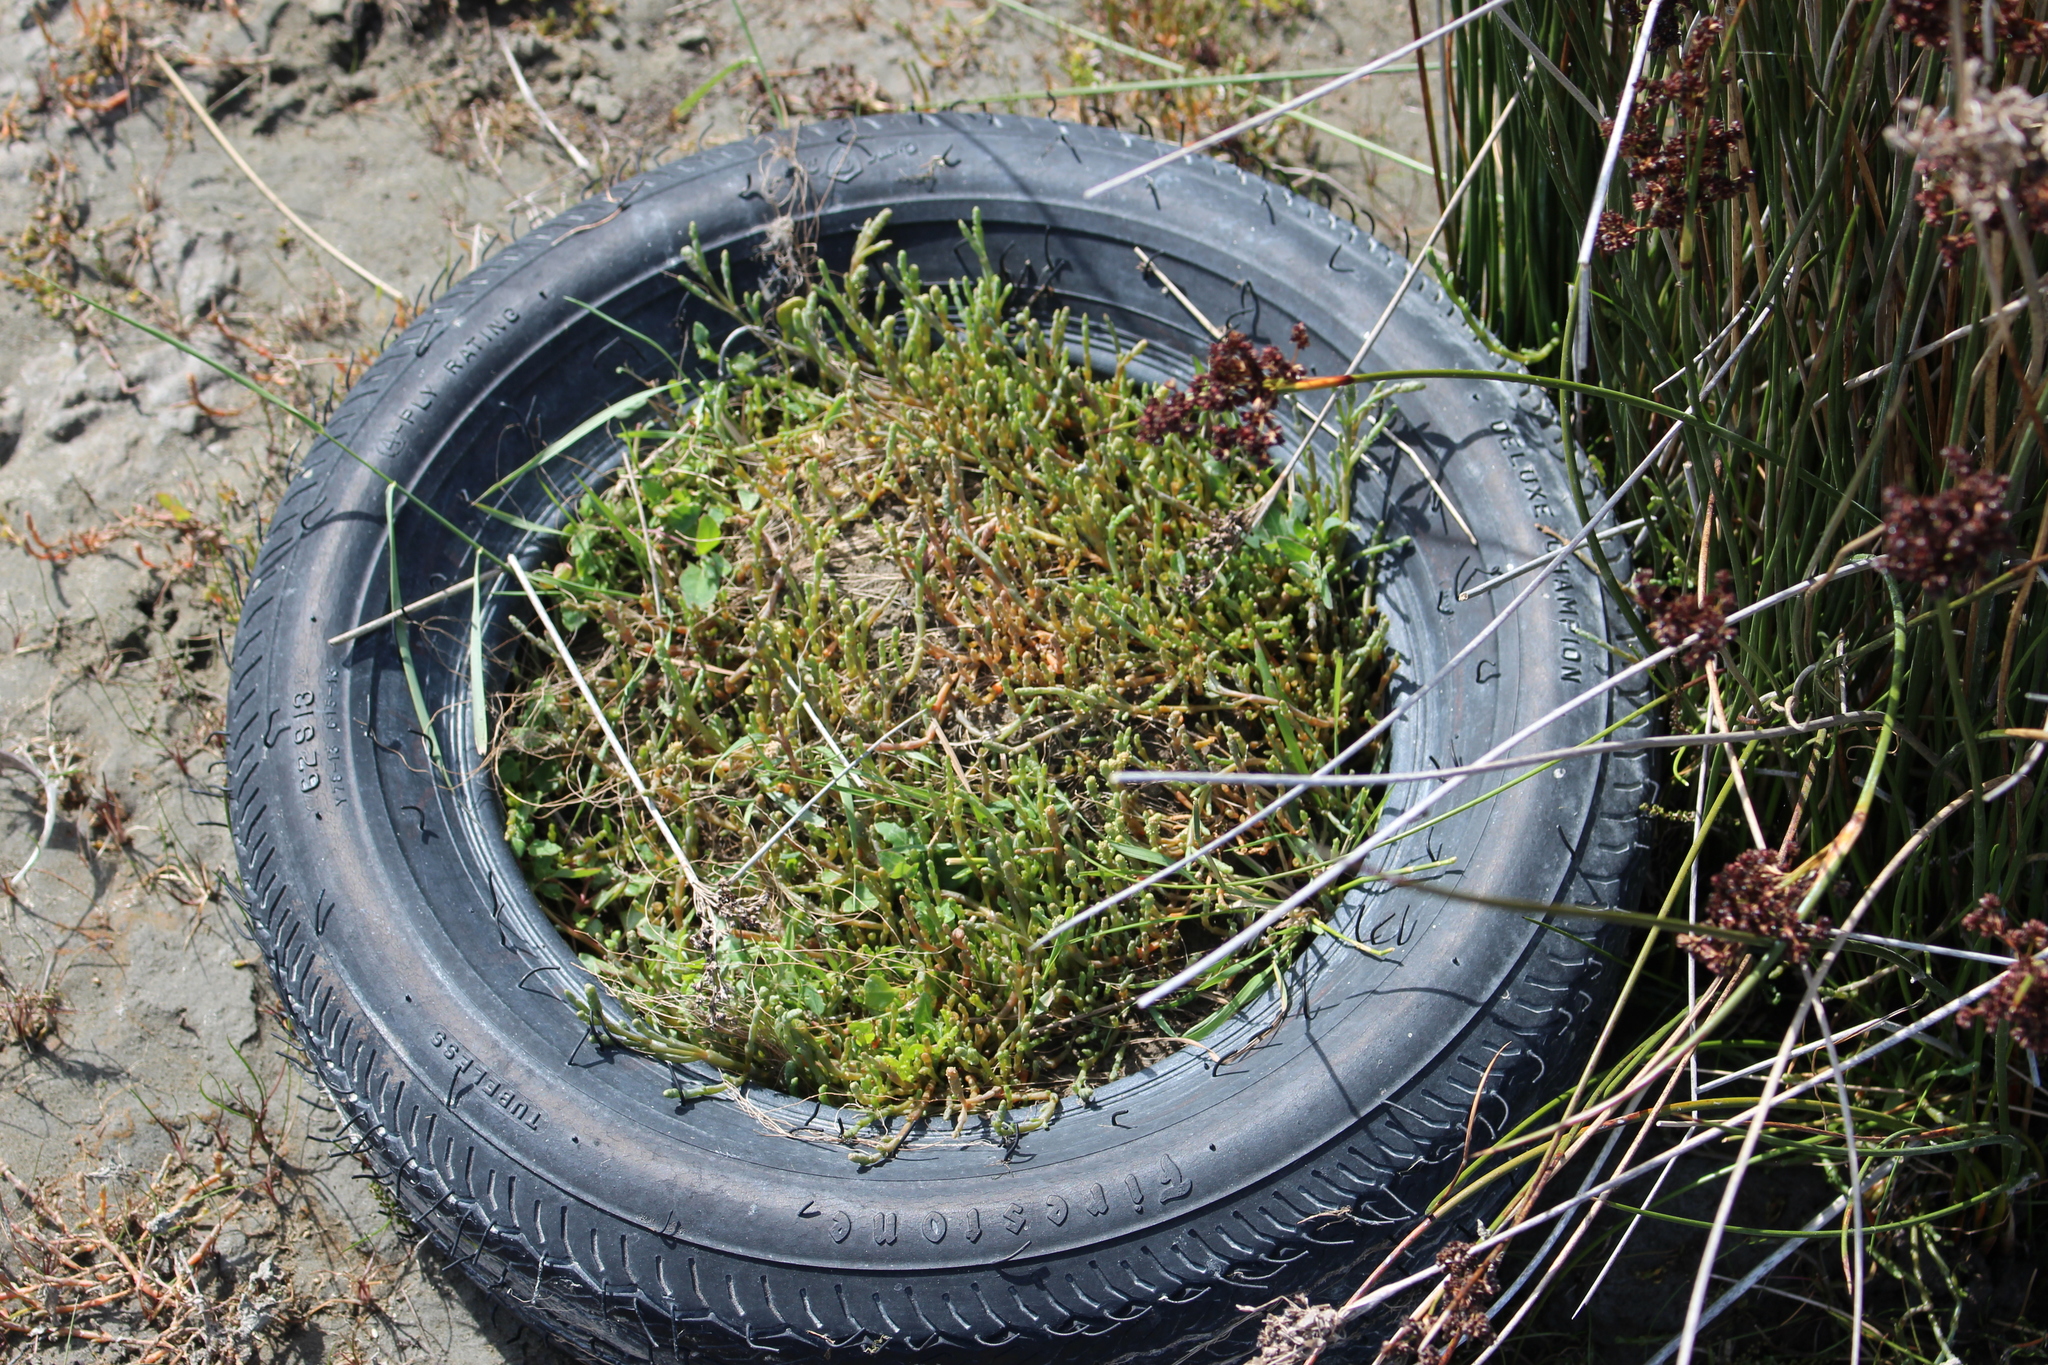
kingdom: Plantae
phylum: Tracheophyta
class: Magnoliopsida
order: Caryophyllales
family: Amaranthaceae
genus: Salicornia
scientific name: Salicornia quinqueflora
